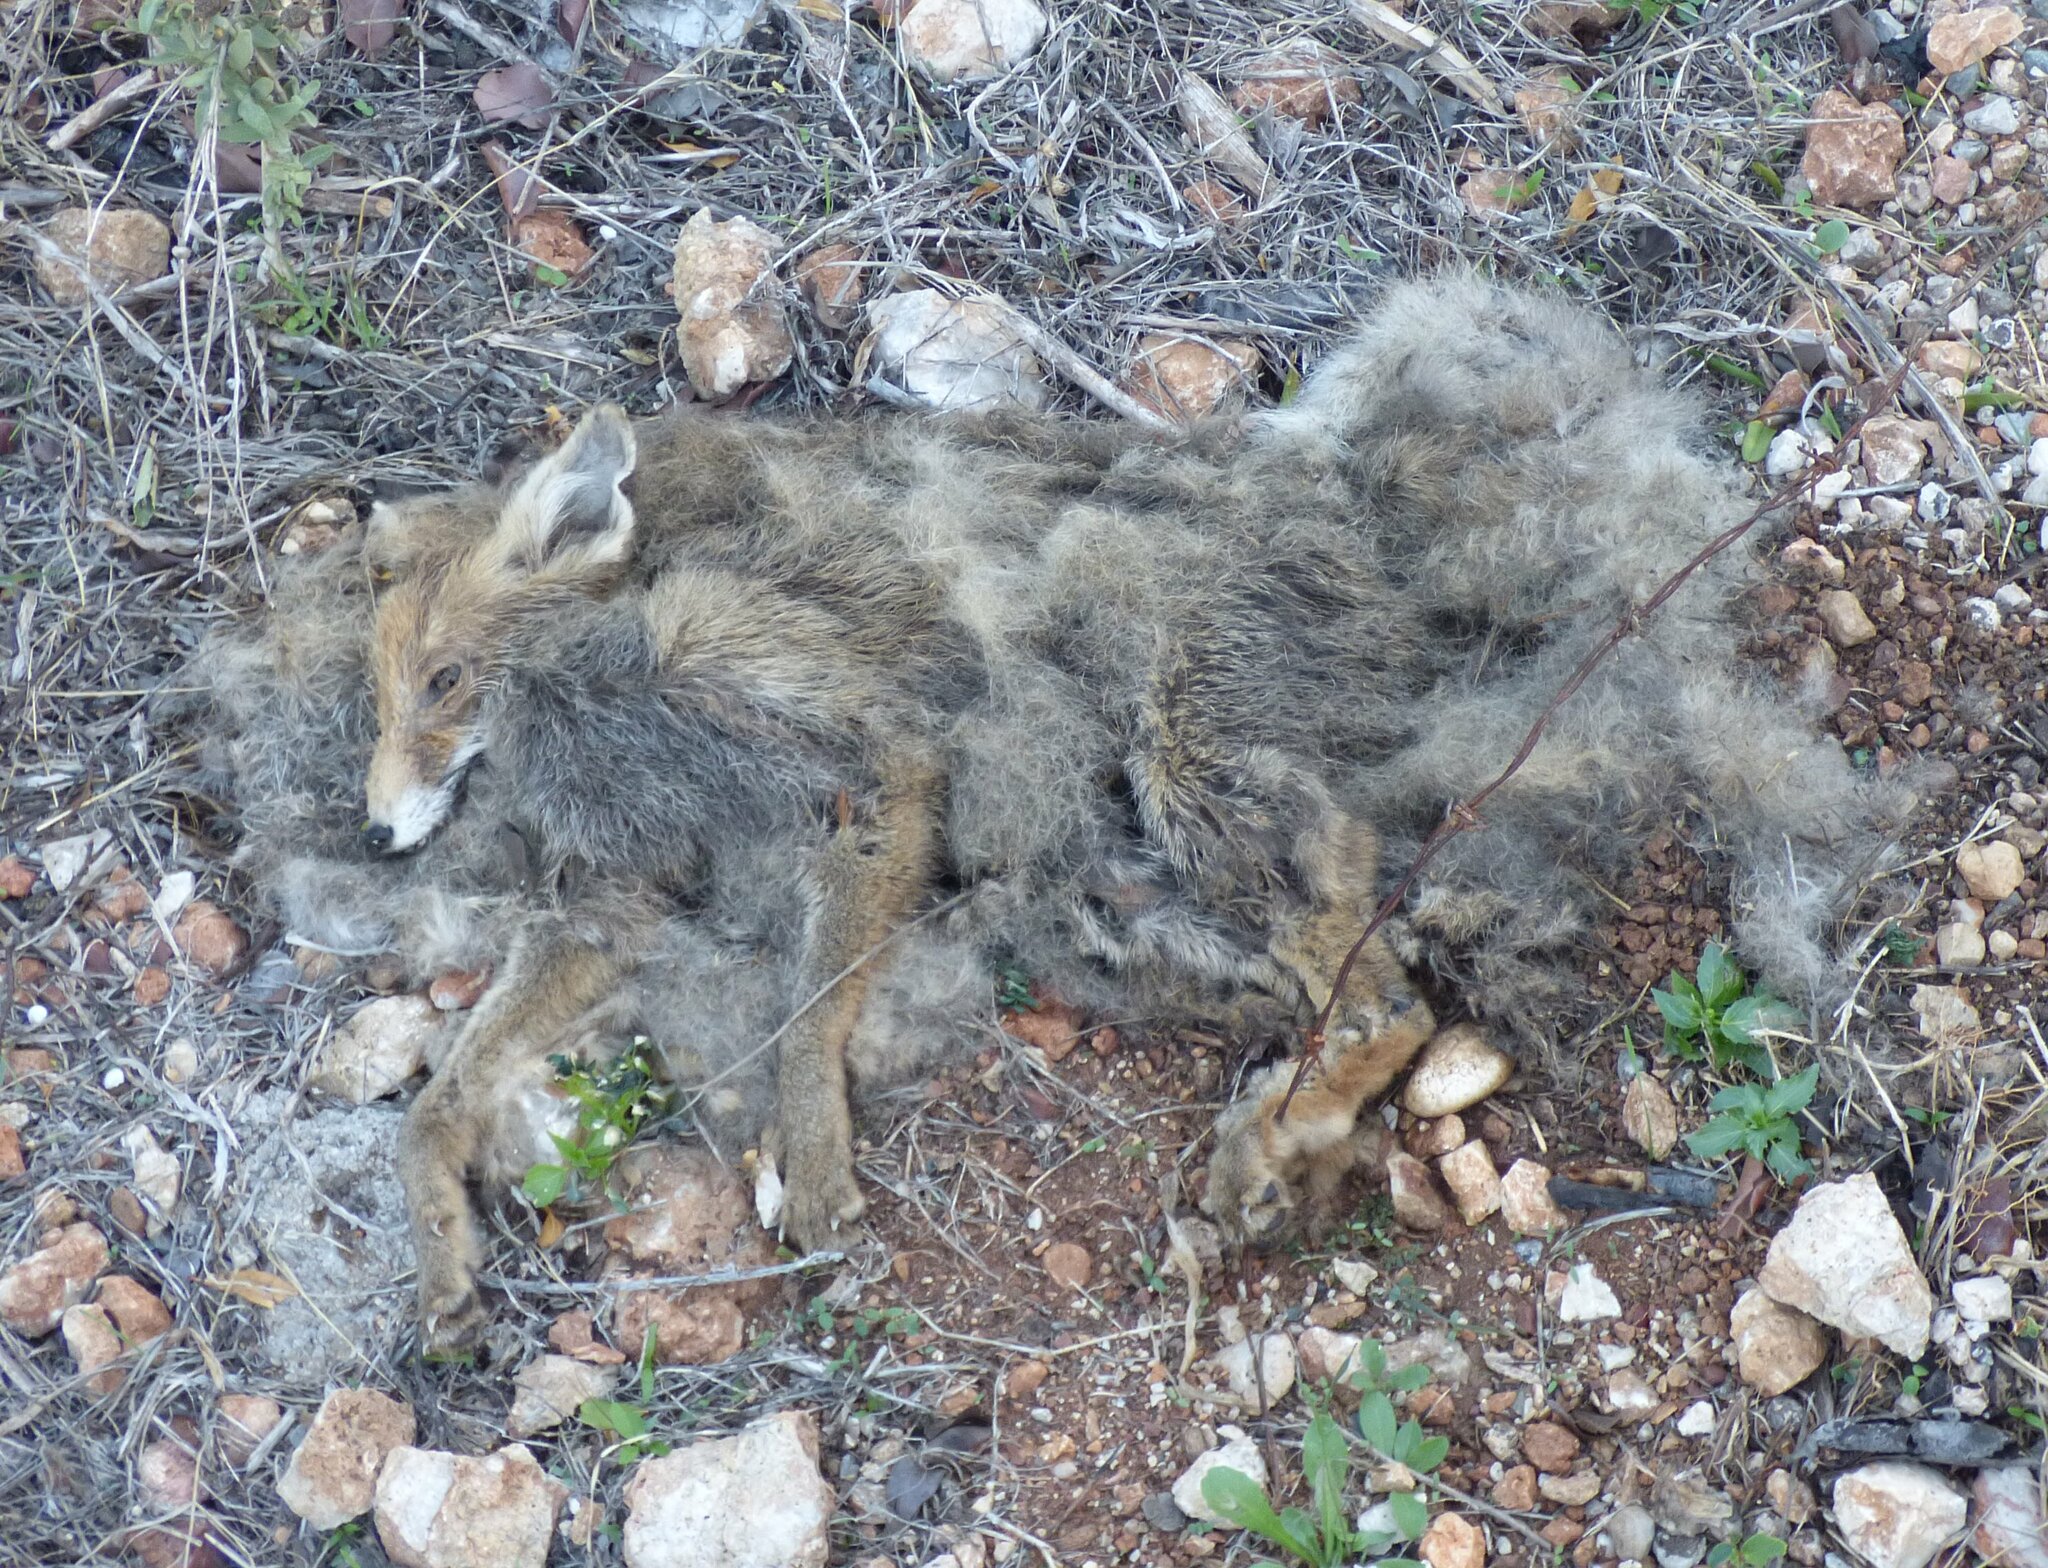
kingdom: Animalia
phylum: Chordata
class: Mammalia
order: Carnivora
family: Canidae
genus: Vulpes
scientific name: Vulpes vulpes
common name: Red fox
